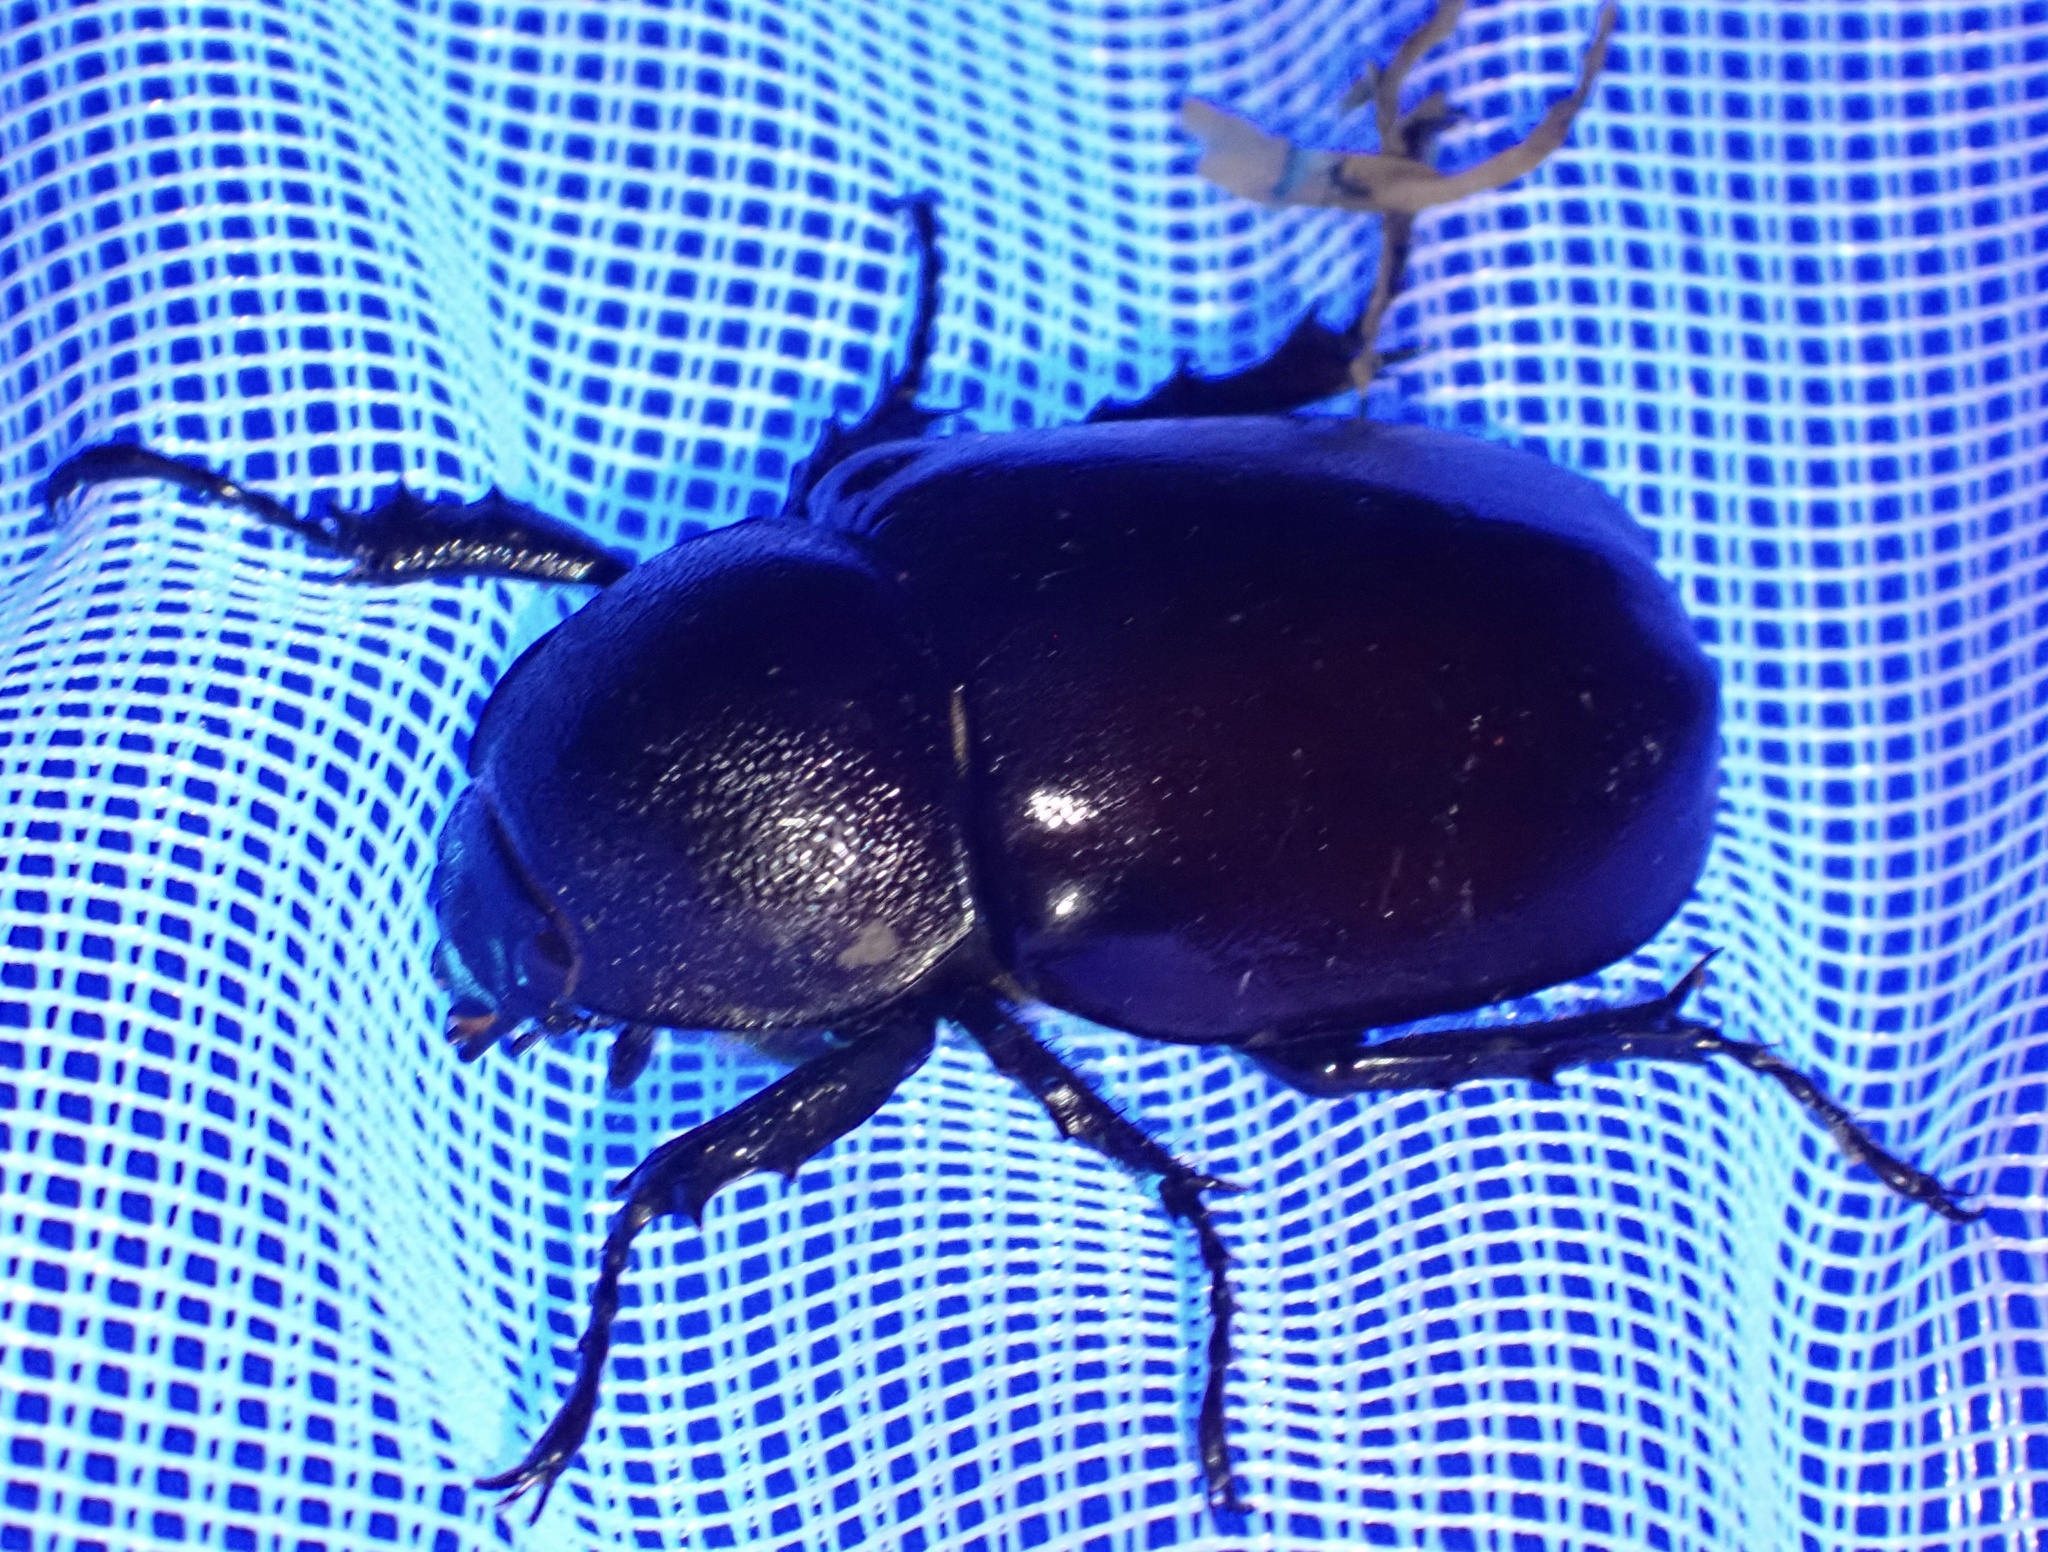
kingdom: Animalia
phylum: Arthropoda
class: Insecta
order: Coleoptera
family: Scarabaeidae
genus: Xylotrupes
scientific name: Xylotrupes carinulus
